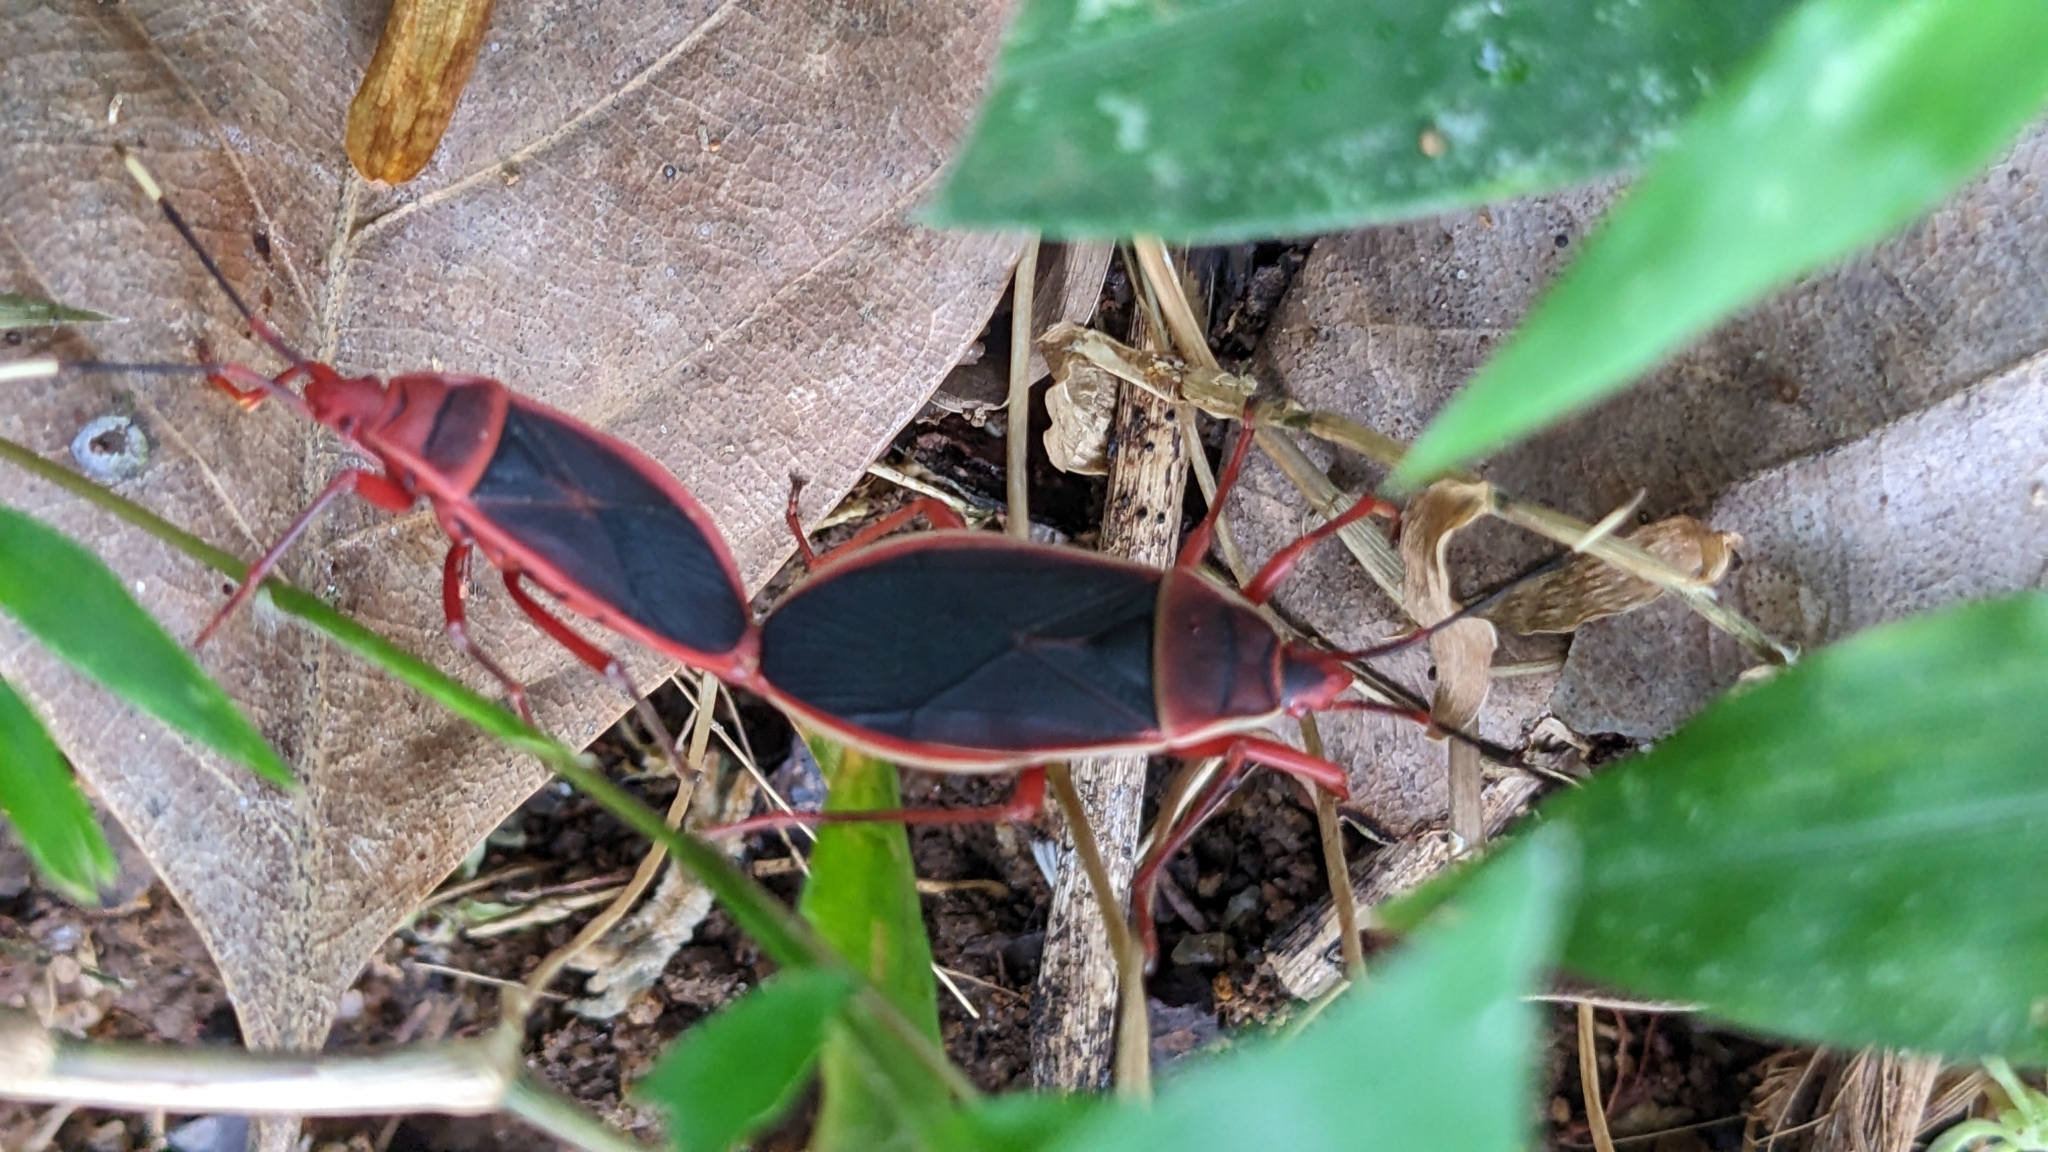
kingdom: Animalia
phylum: Arthropoda
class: Insecta
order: Hemiptera
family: Pyrrhocoridae
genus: Probergrothius
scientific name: Probergrothius
